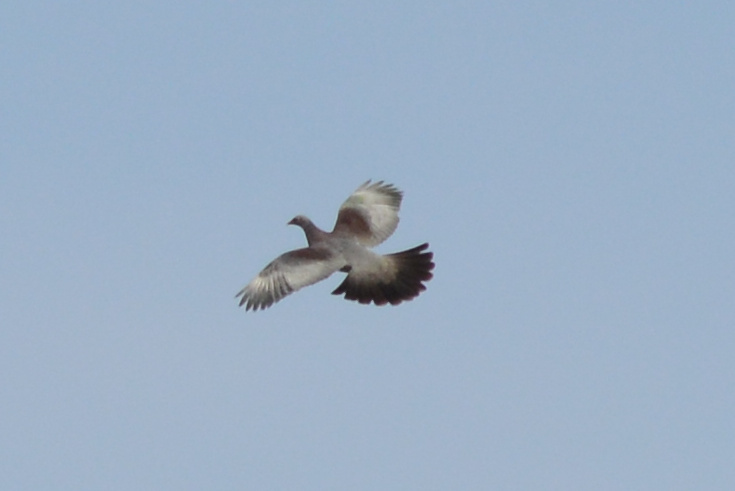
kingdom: Animalia
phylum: Chordata
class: Aves
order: Columbiformes
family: Columbidae
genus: Hemiphaga
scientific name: Hemiphaga novaeseelandiae
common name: New zealand pigeon
